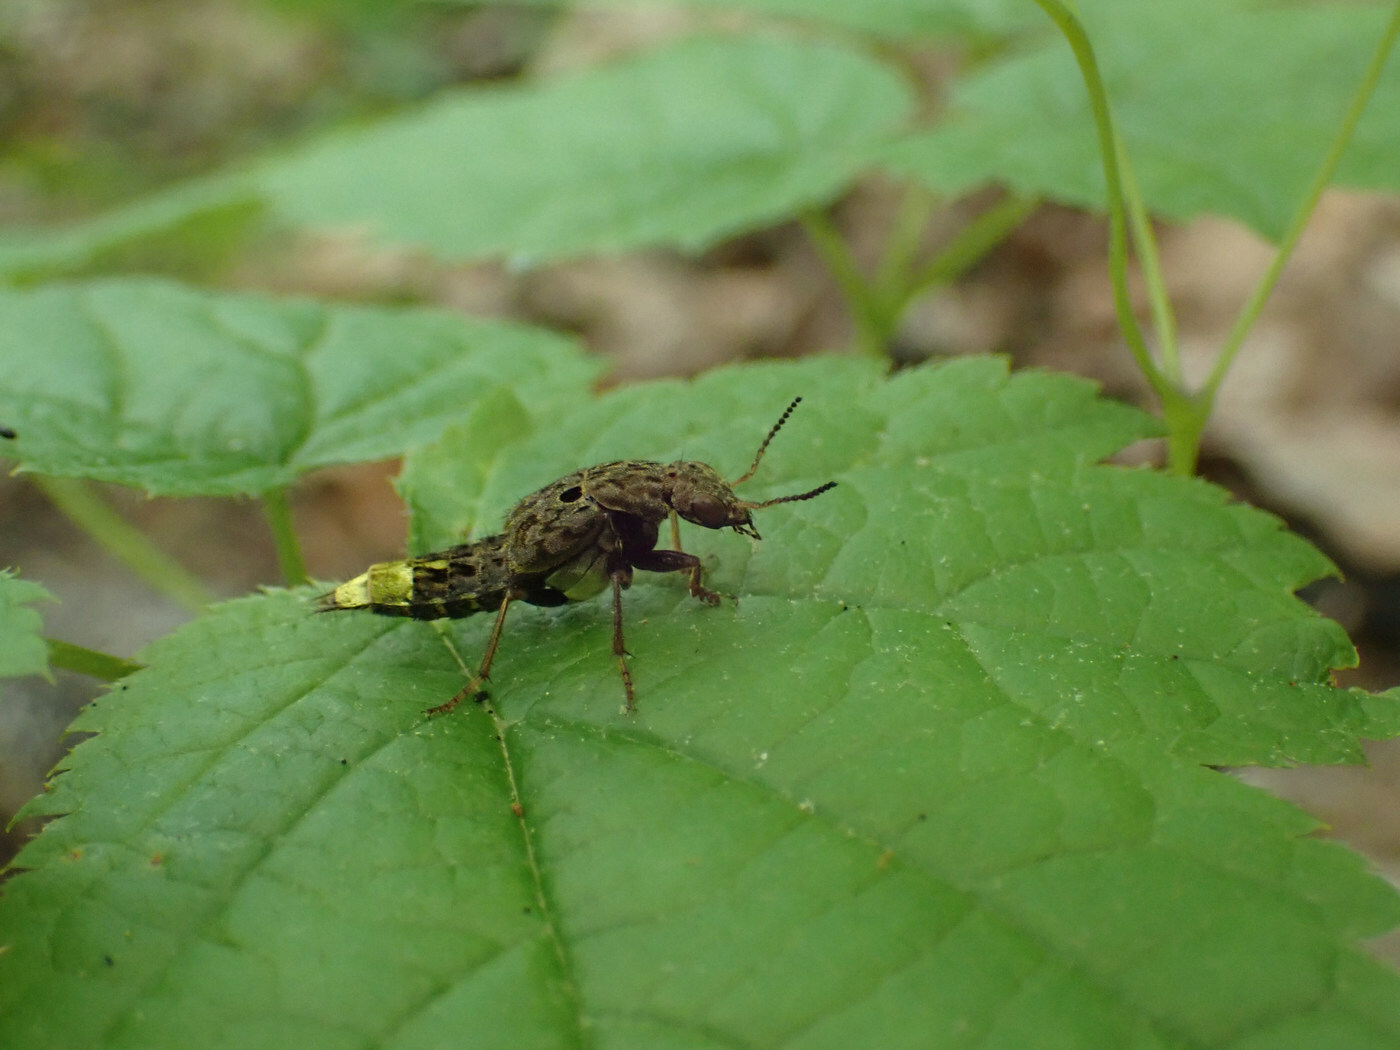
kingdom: Animalia
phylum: Arthropoda
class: Insecta
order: Coleoptera
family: Staphylinidae
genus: Ontholestes
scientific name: Ontholestes cingulatus
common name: Gold-and-brown rove beetle
